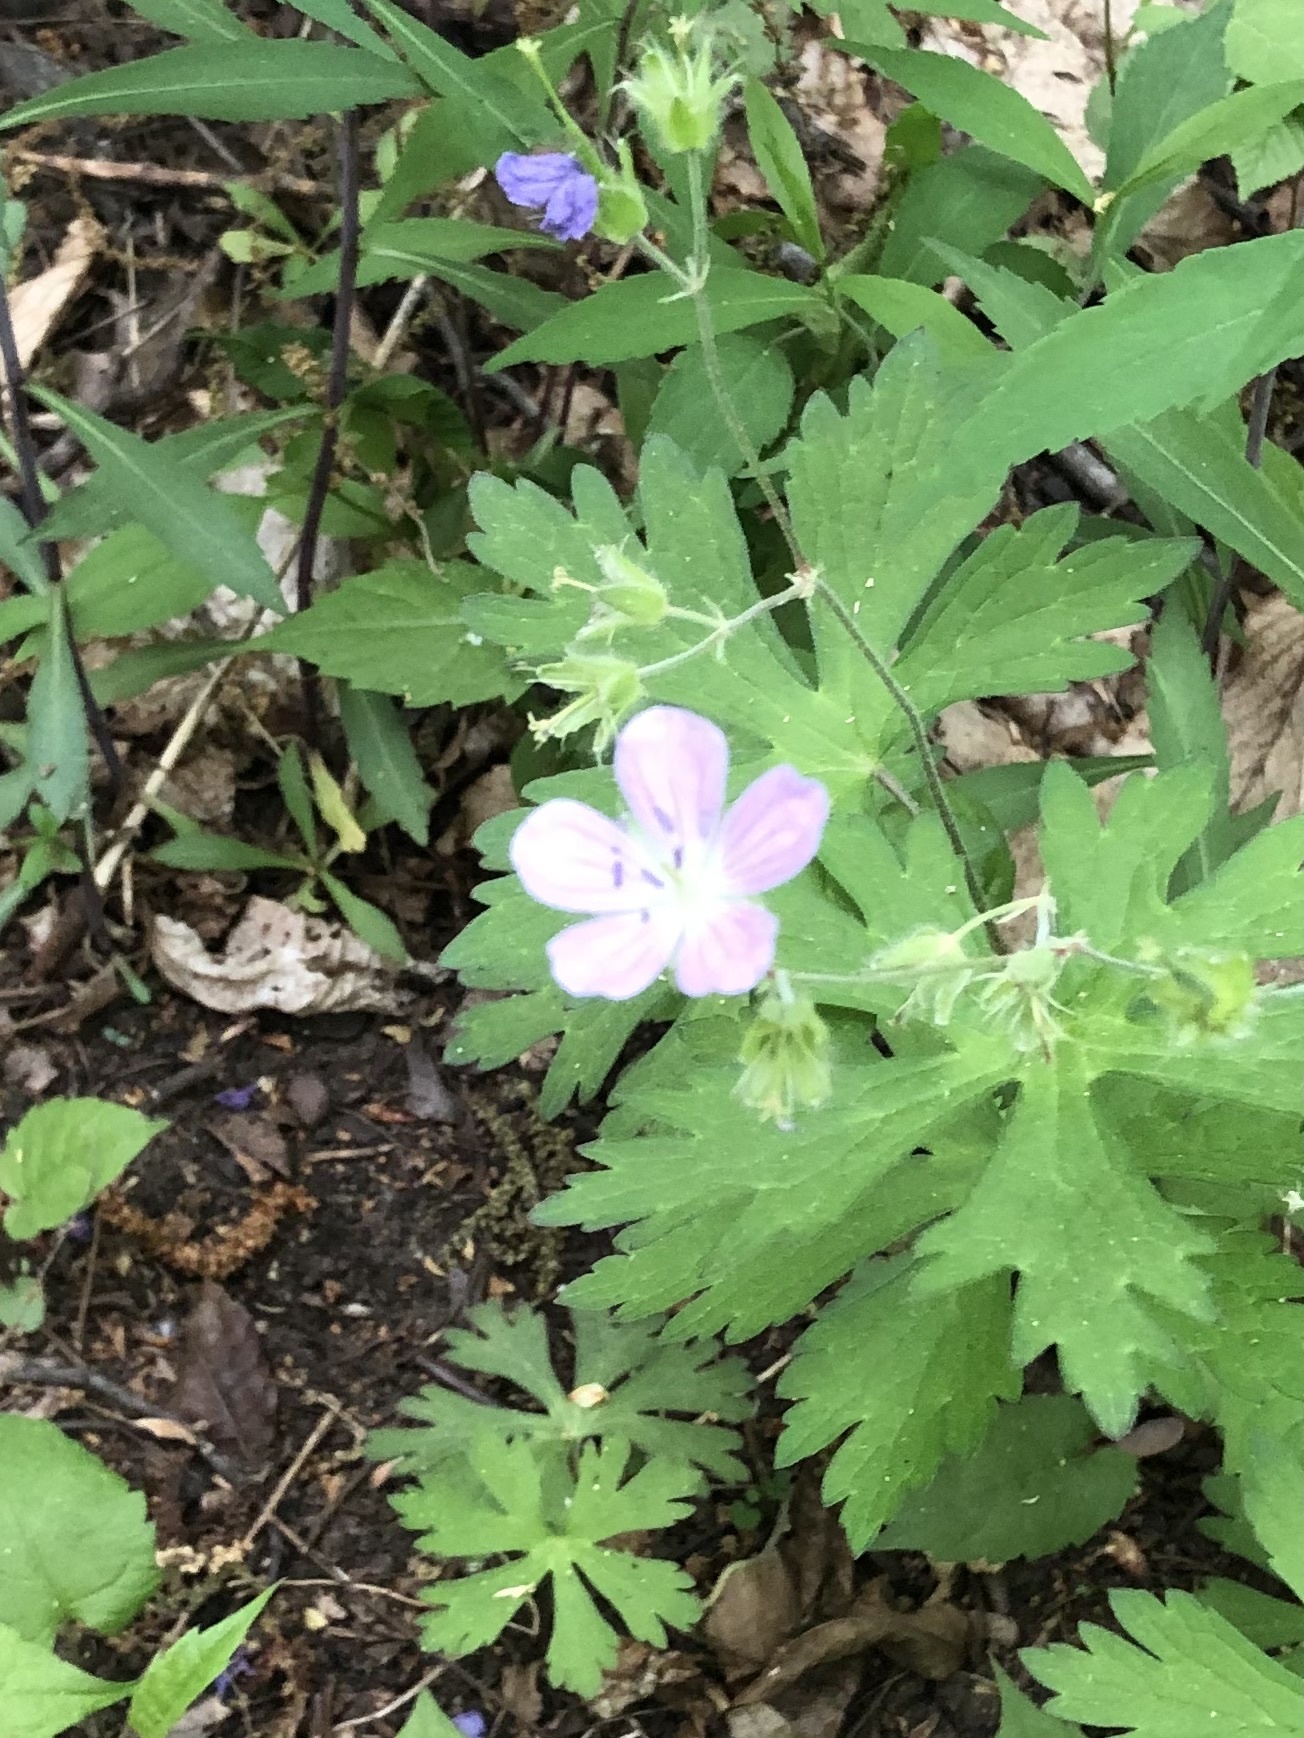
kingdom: Plantae
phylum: Tracheophyta
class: Magnoliopsida
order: Geraniales
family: Geraniaceae
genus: Geranium
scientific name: Geranium maculatum
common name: Spotted geranium
